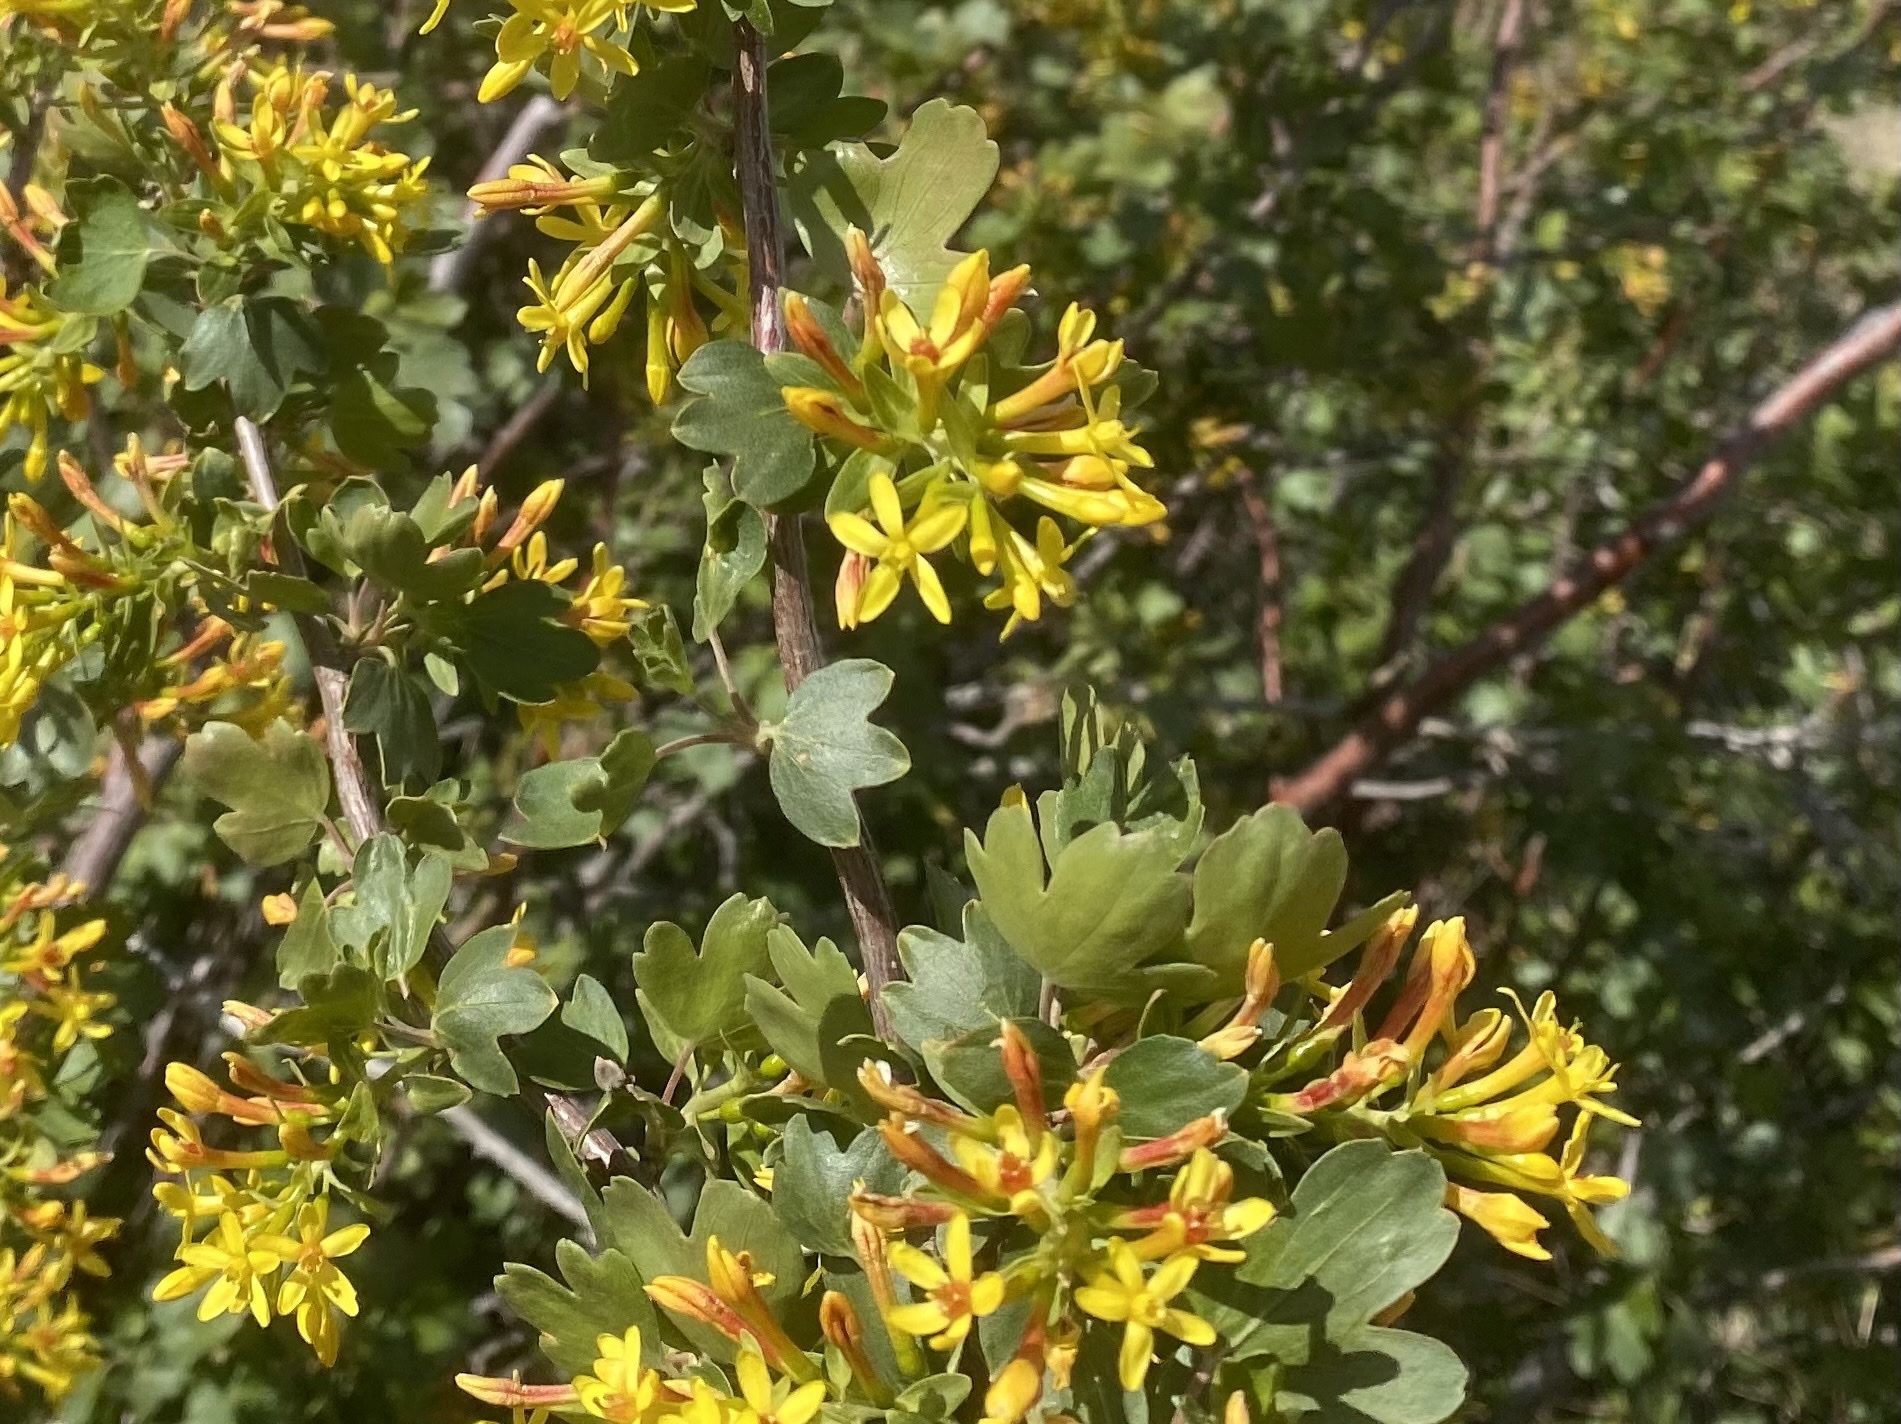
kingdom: Plantae
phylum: Tracheophyta
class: Magnoliopsida
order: Saxifragales
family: Grossulariaceae
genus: Ribes
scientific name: Ribes aureum
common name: Golden currant
